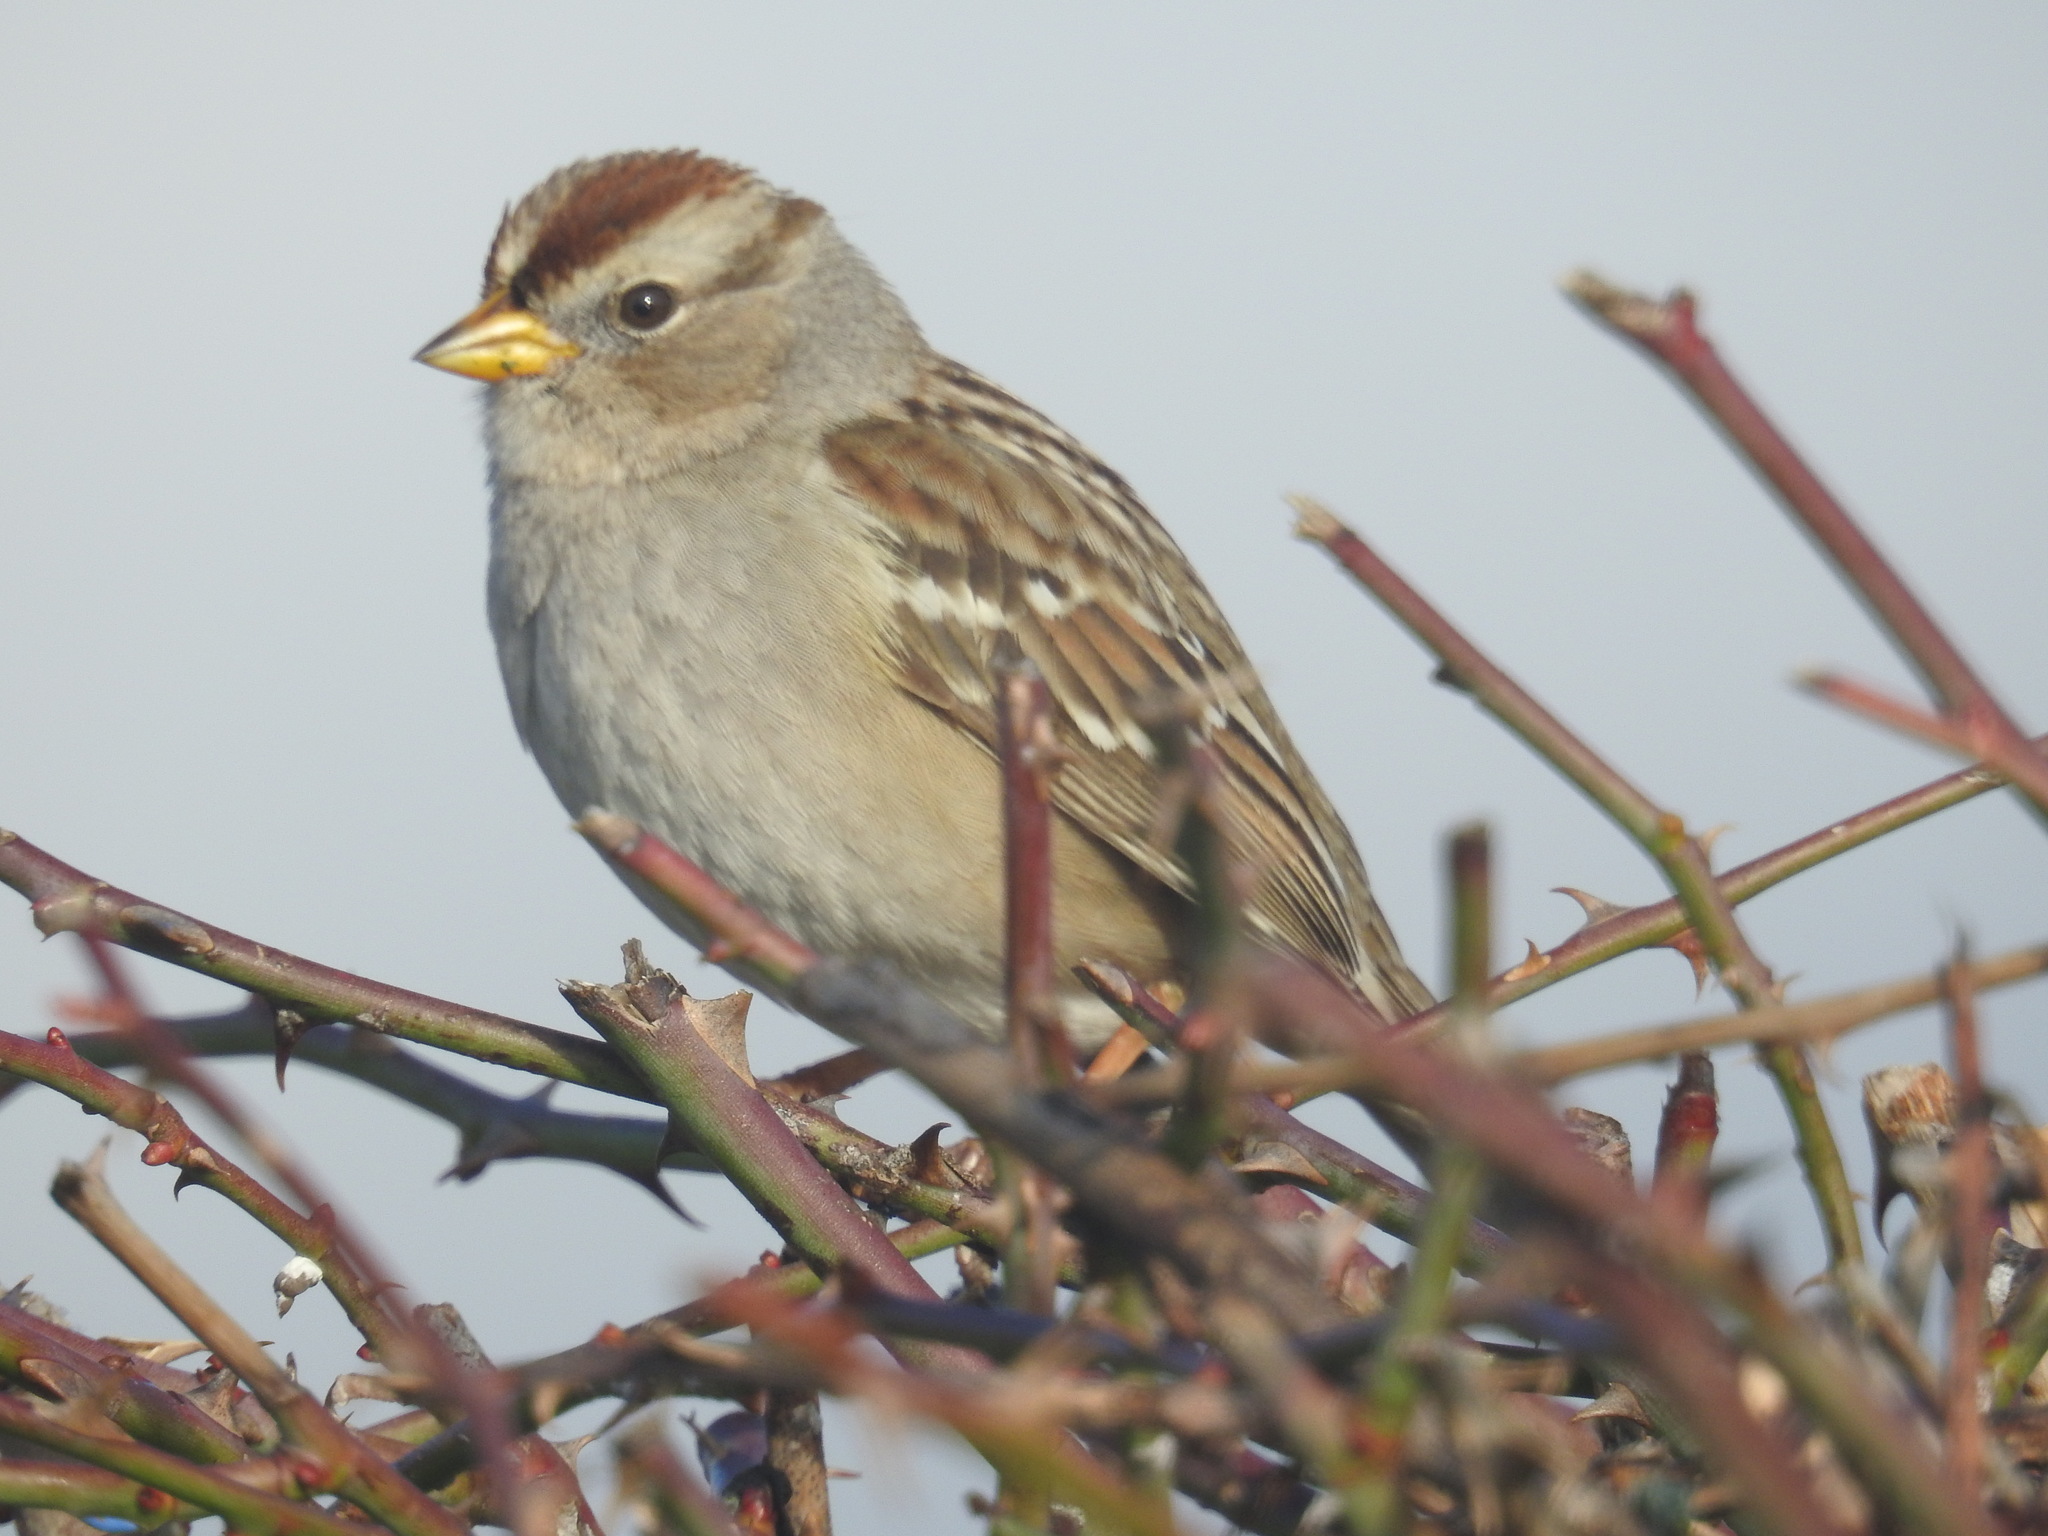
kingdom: Animalia
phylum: Chordata
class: Aves
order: Passeriformes
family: Passerellidae
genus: Zonotrichia
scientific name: Zonotrichia leucophrys
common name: White-crowned sparrow
